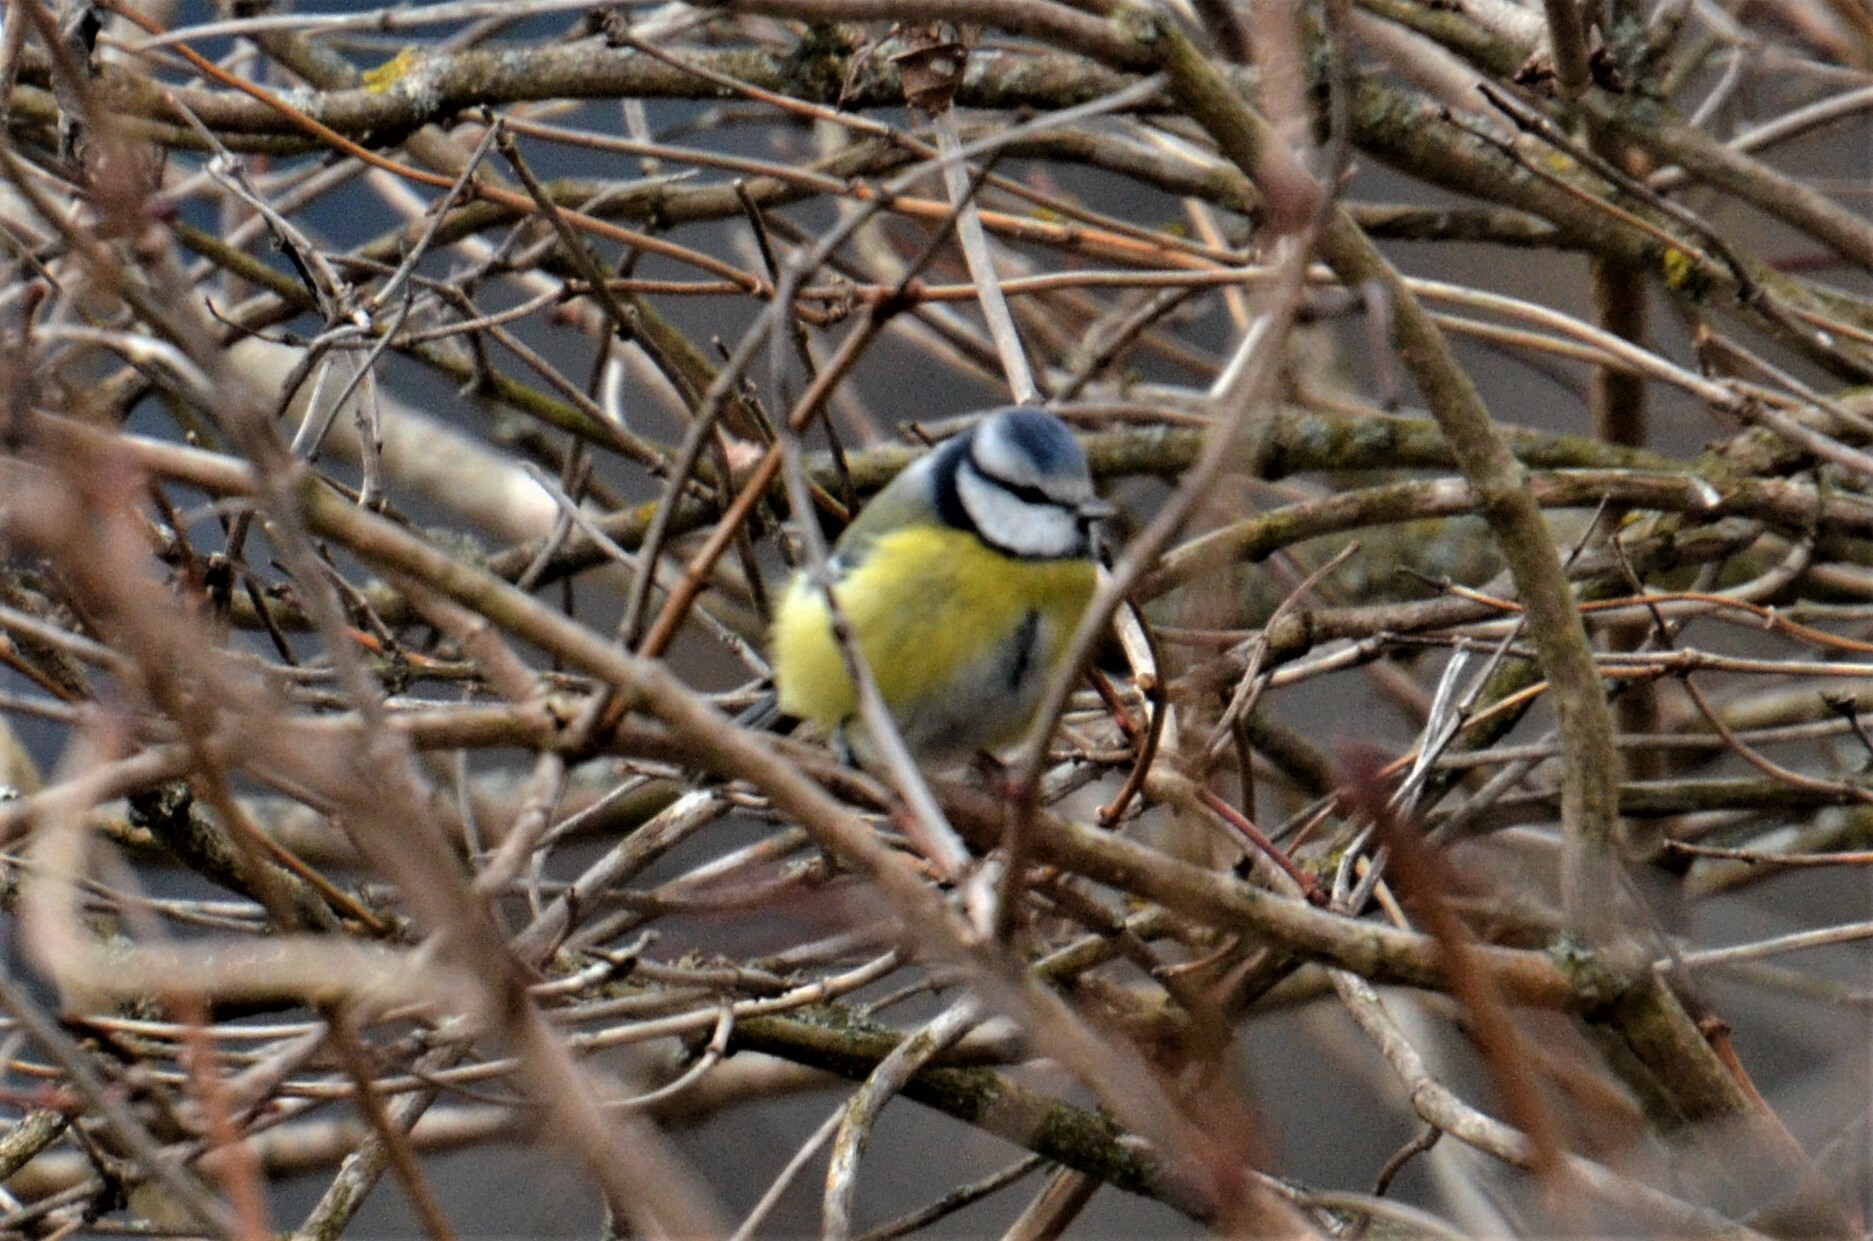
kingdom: Animalia
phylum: Chordata
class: Aves
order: Passeriformes
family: Paridae
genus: Cyanistes
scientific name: Cyanistes caeruleus
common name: Eurasian blue tit
